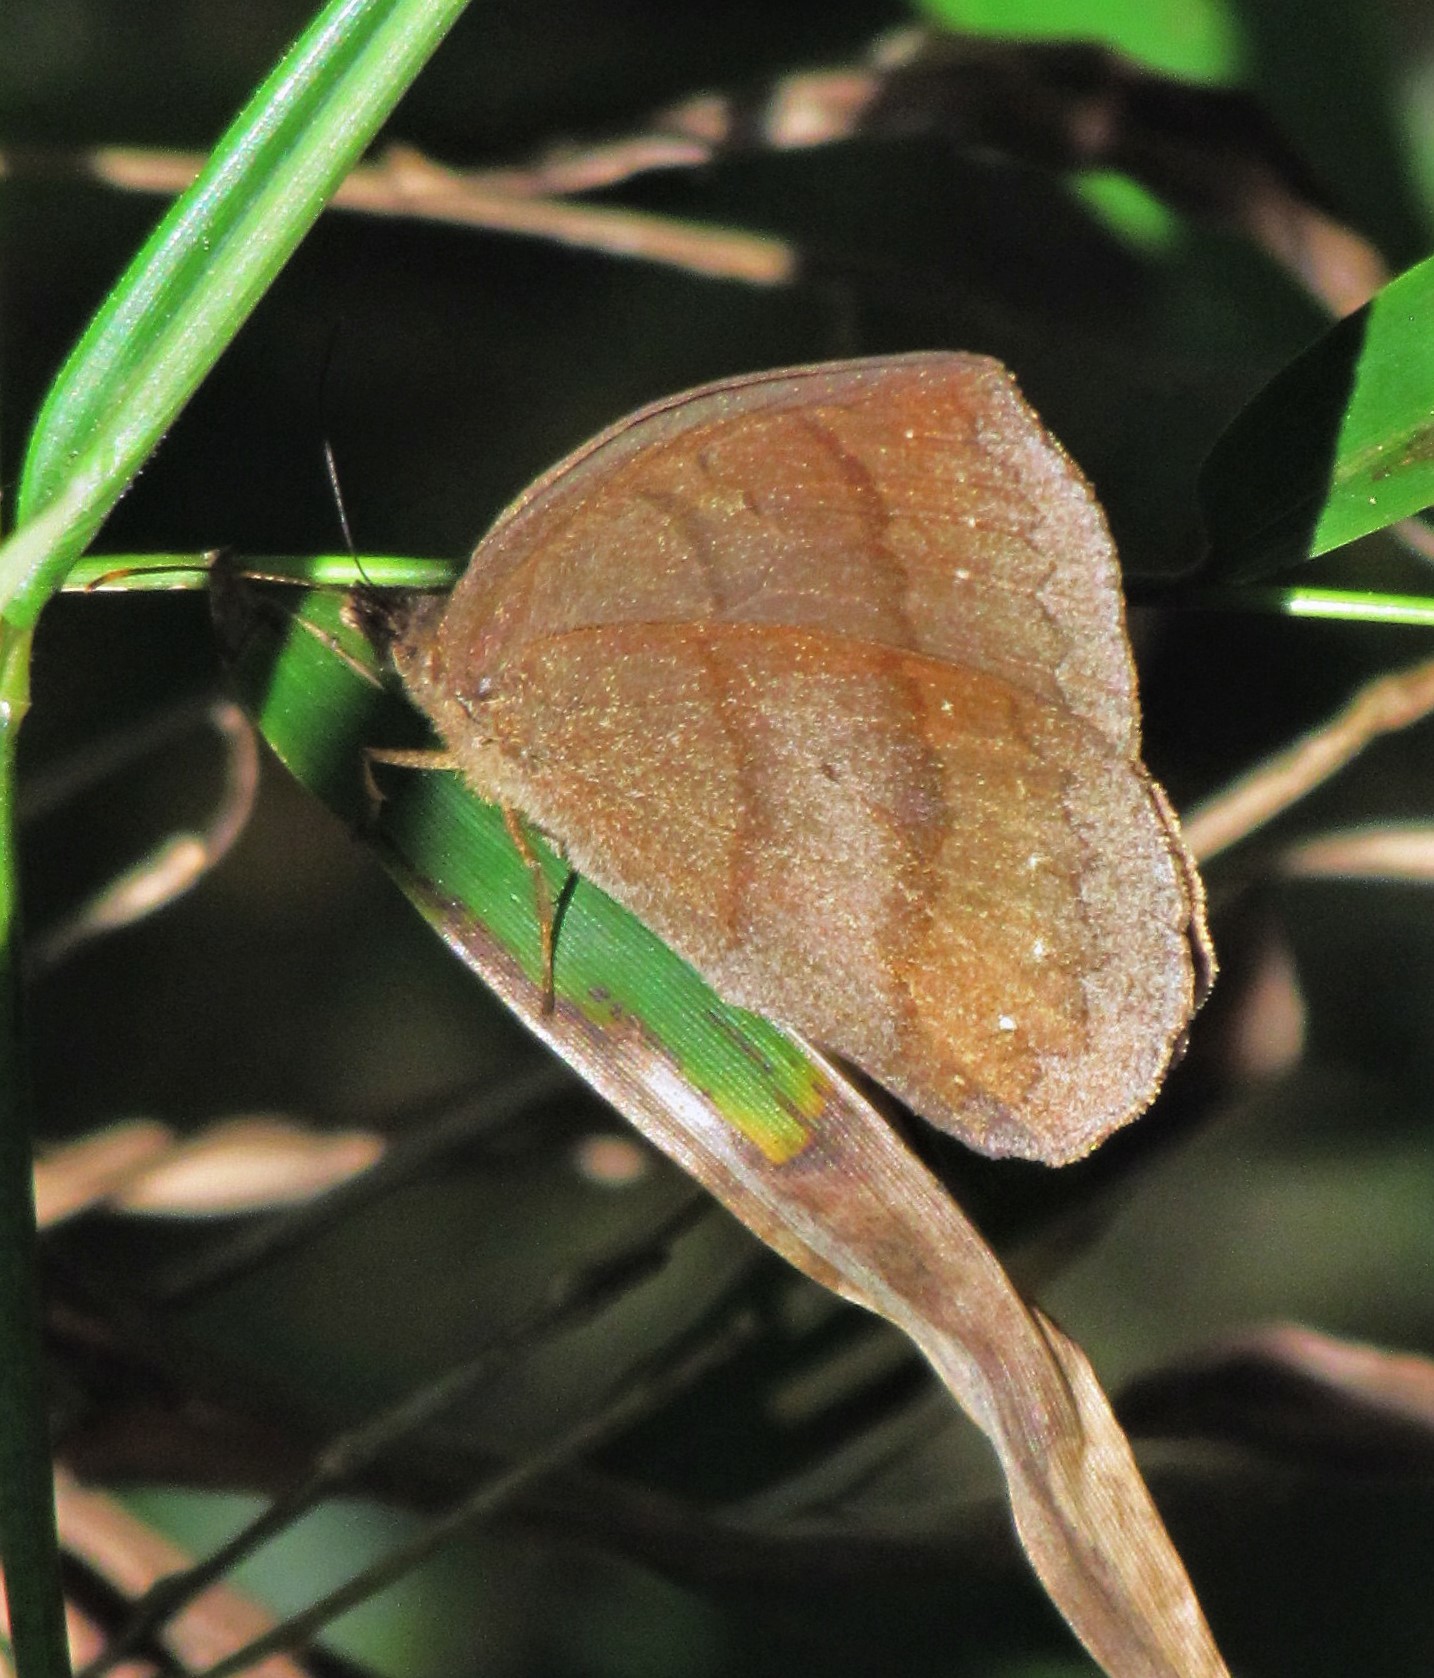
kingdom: Animalia
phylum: Arthropoda
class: Insecta
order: Lepidoptera
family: Nymphalidae
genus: Forsterinaria
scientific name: Forsterinaria quantius
